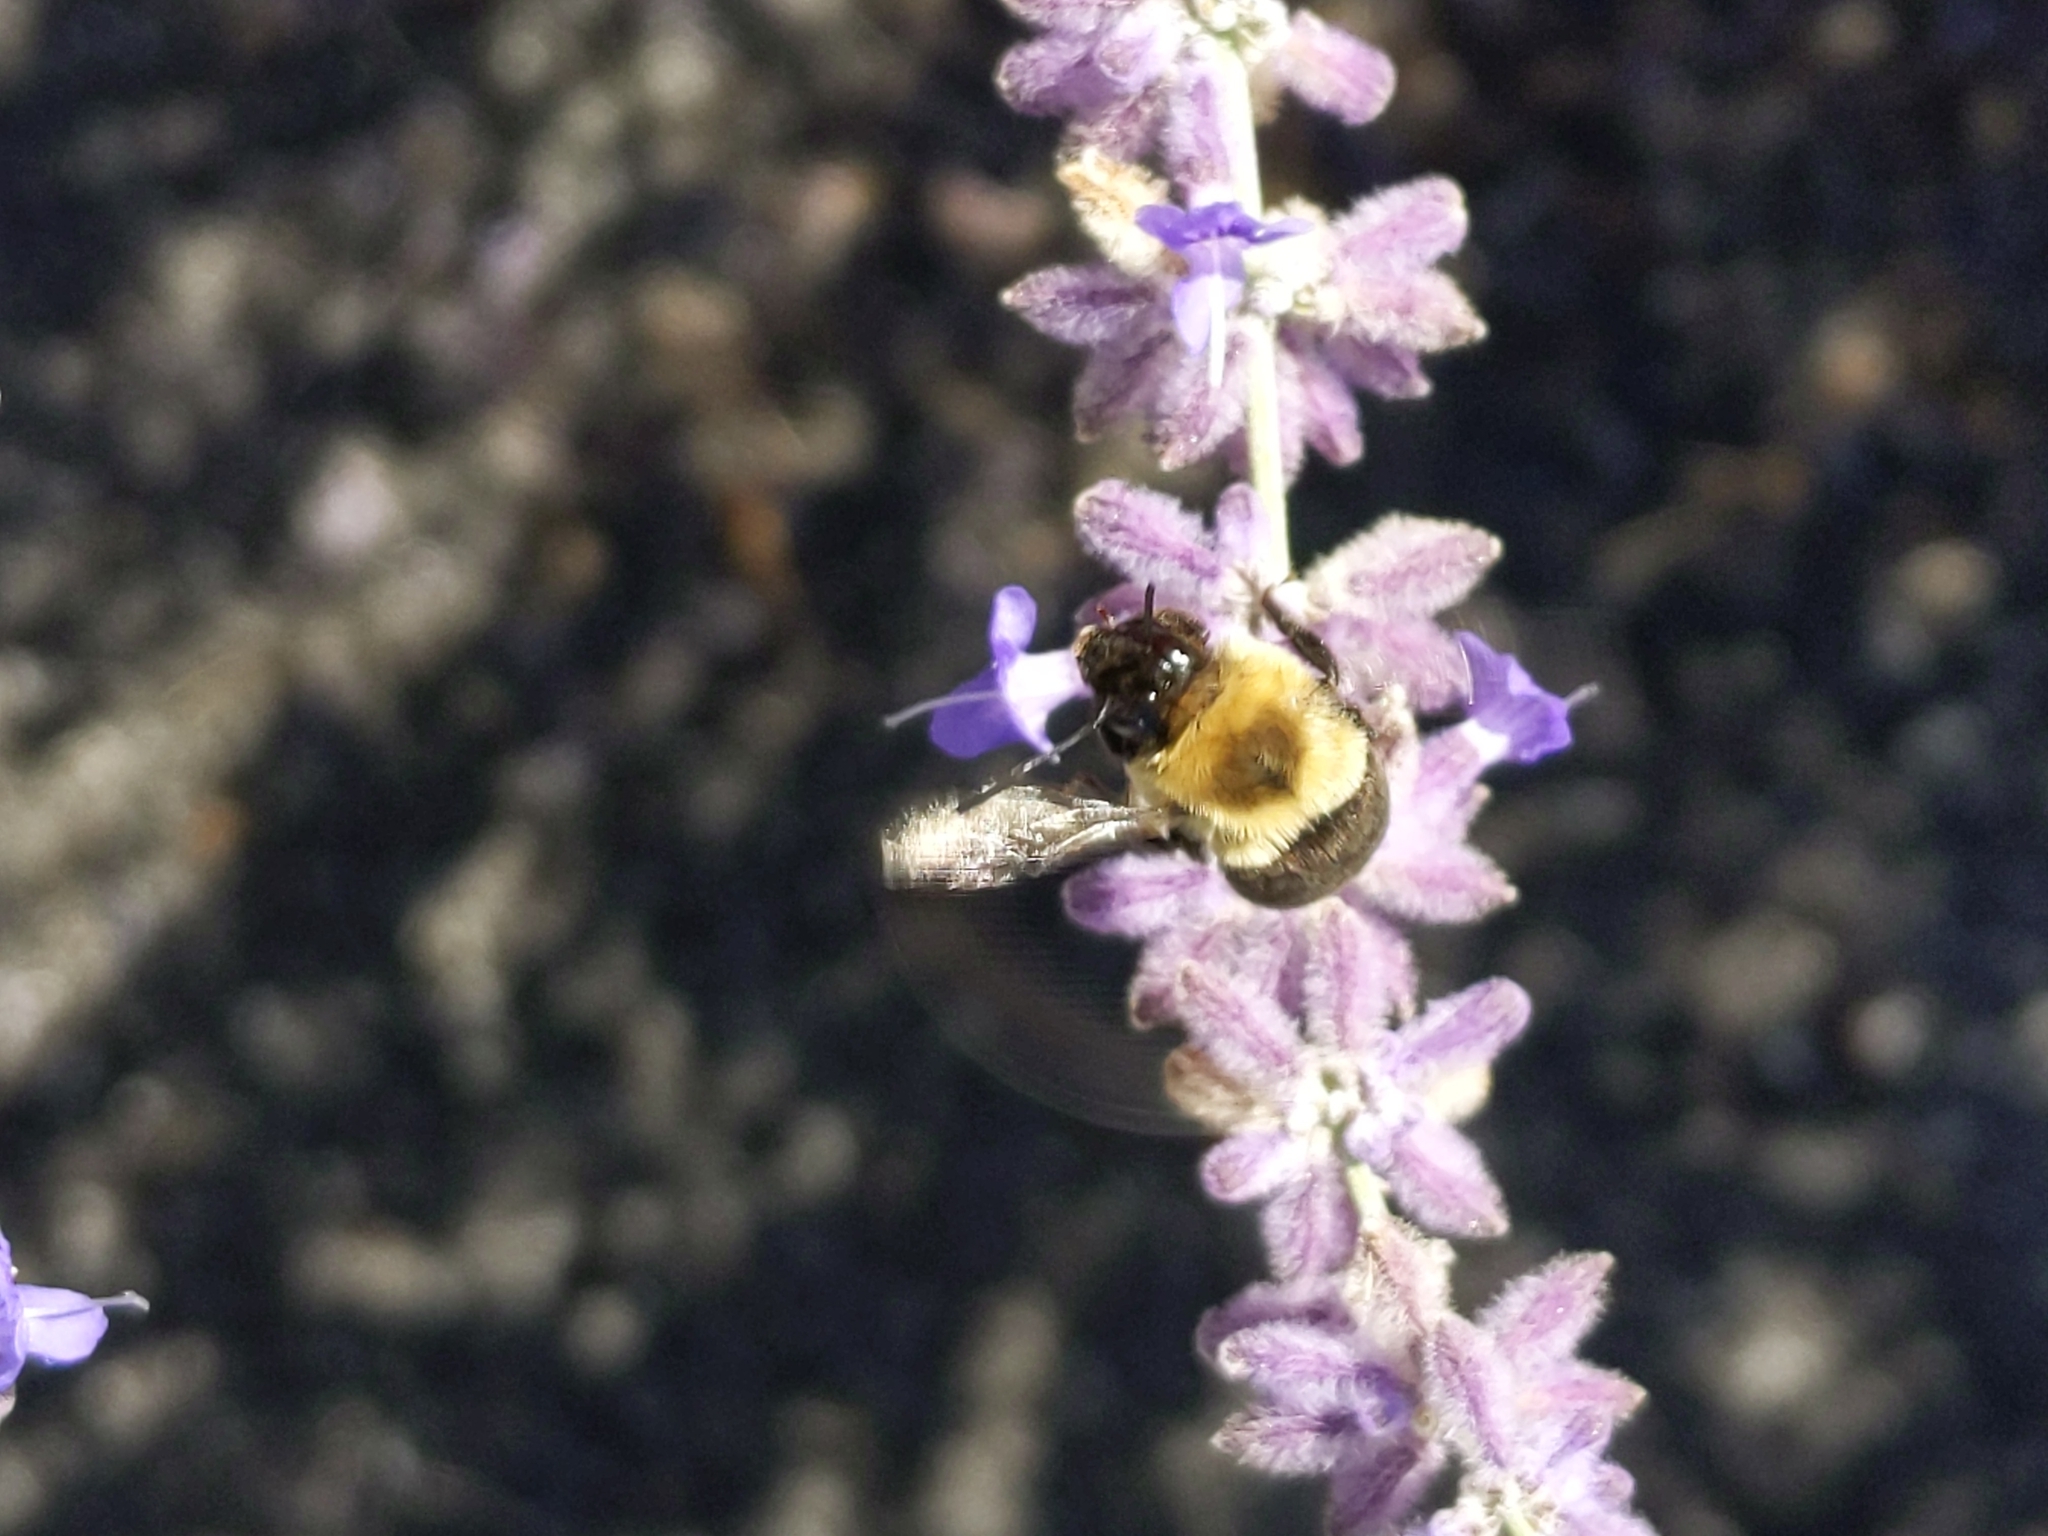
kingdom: Animalia
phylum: Arthropoda
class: Insecta
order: Hymenoptera
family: Apidae
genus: Bombus
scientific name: Bombus impatiens
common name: Common eastern bumble bee
